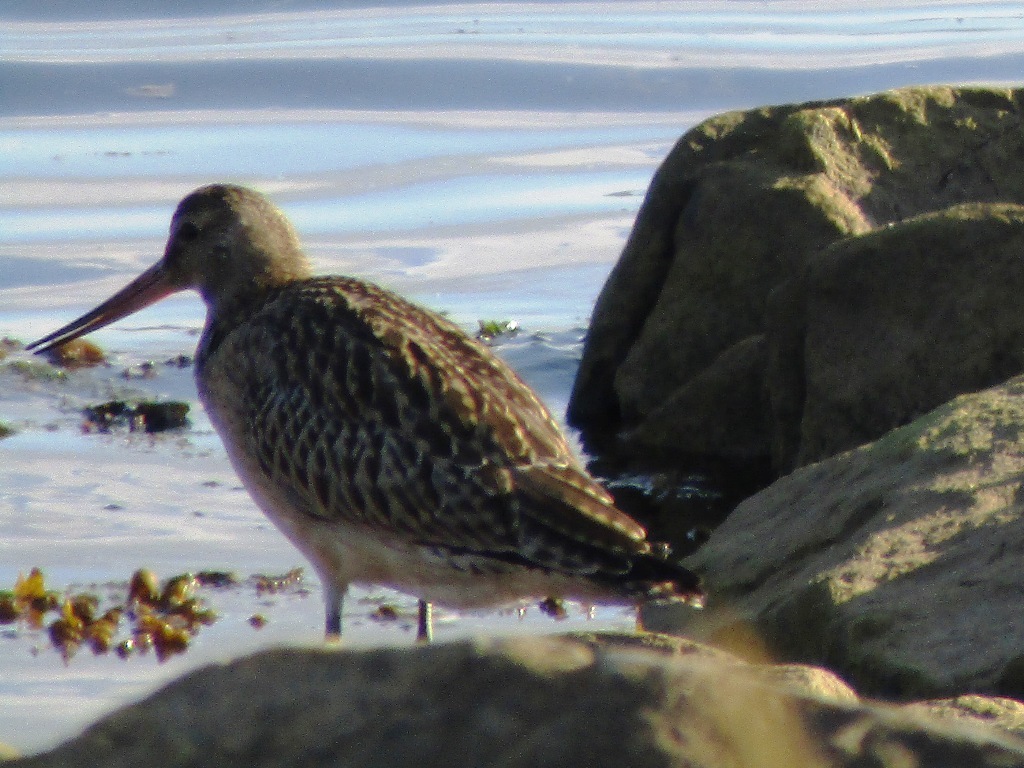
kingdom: Animalia
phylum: Chordata
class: Aves
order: Charadriiformes
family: Scolopacidae
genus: Limosa
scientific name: Limosa lapponica
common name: Bar-tailed godwit
